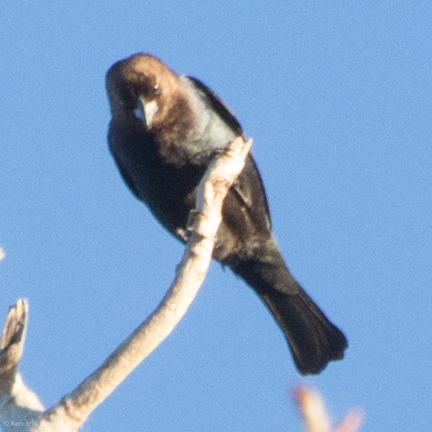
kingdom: Animalia
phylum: Chordata
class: Aves
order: Passeriformes
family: Icteridae
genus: Molothrus
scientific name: Molothrus ater
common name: Brown-headed cowbird
